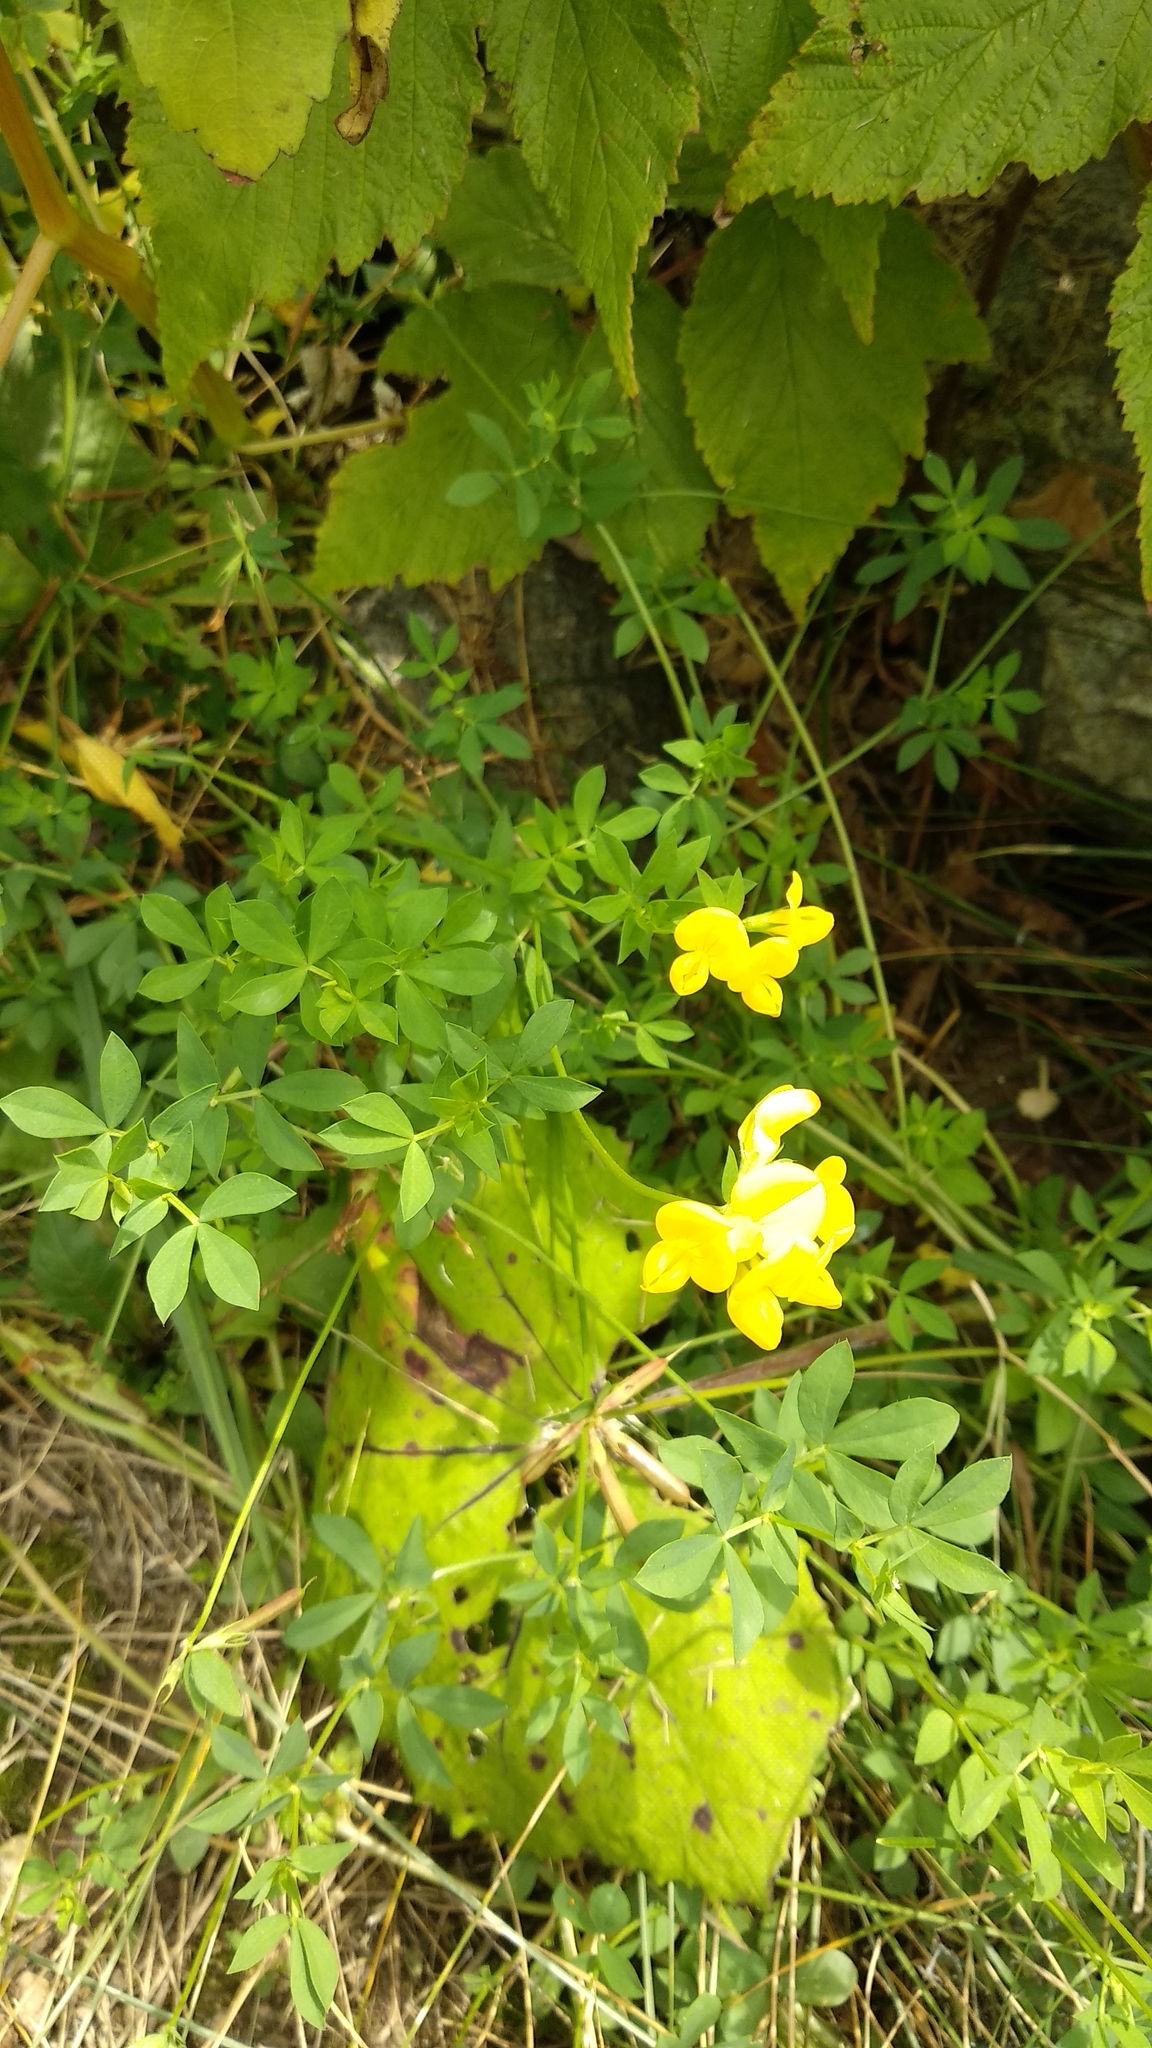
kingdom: Plantae
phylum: Tracheophyta
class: Magnoliopsida
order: Fabales
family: Fabaceae
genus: Lotus
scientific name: Lotus corniculatus
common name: Common bird's-foot-trefoil
